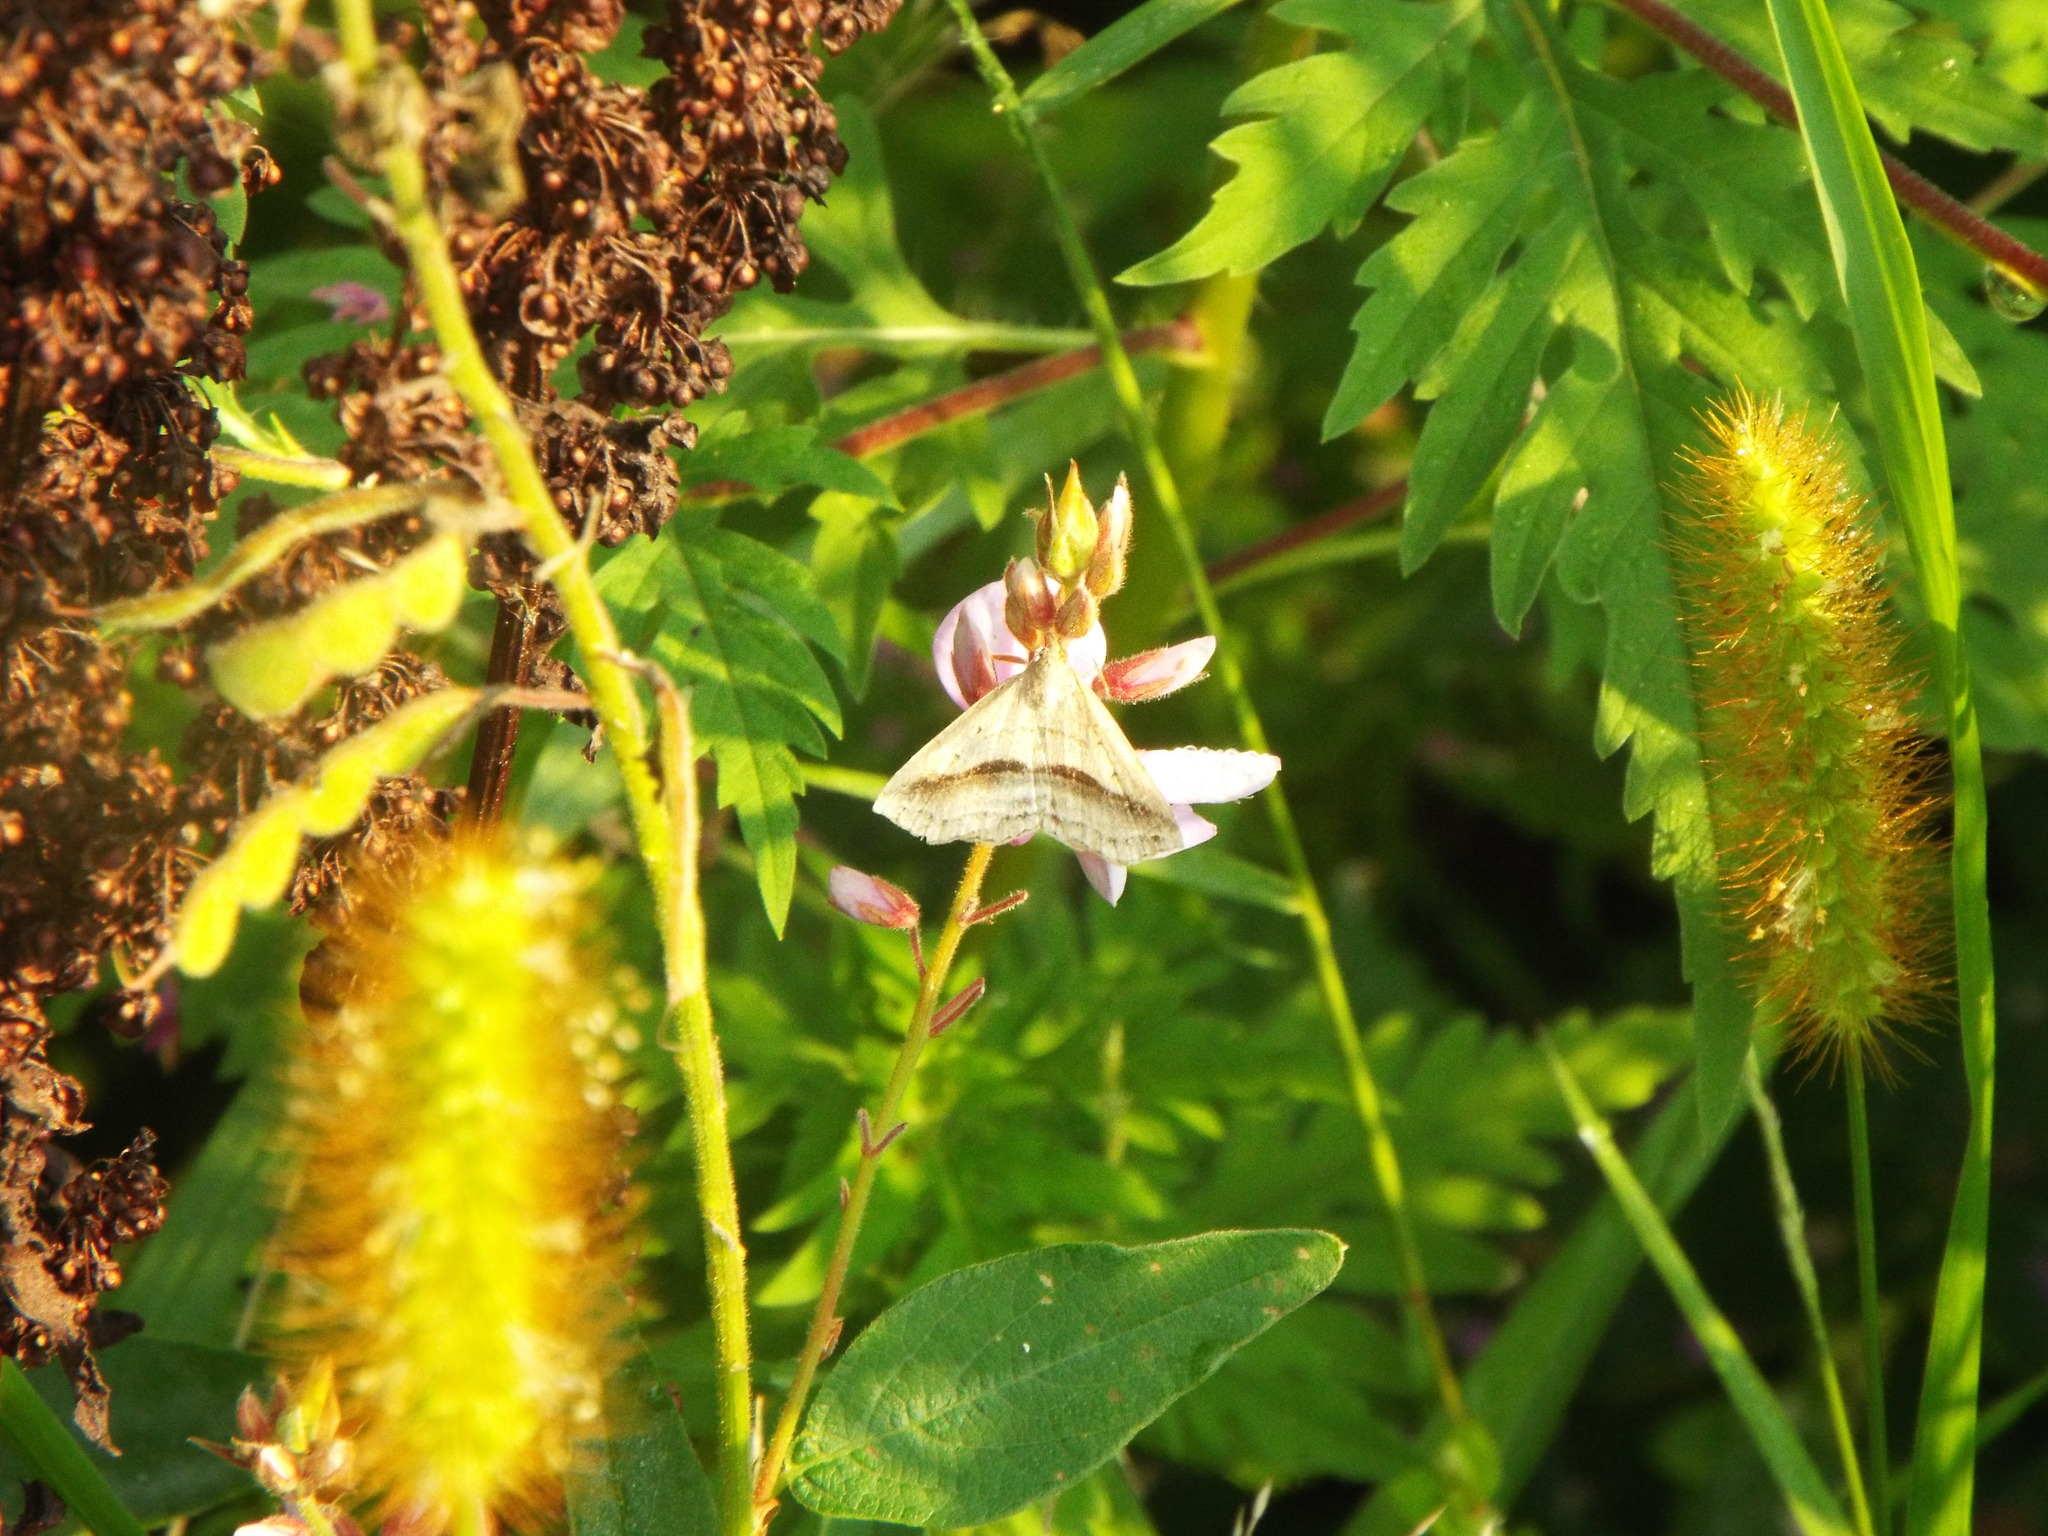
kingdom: Animalia
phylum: Arthropoda
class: Insecta
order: Lepidoptera
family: Erebidae
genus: Spargaloma
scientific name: Spargaloma perditalis
